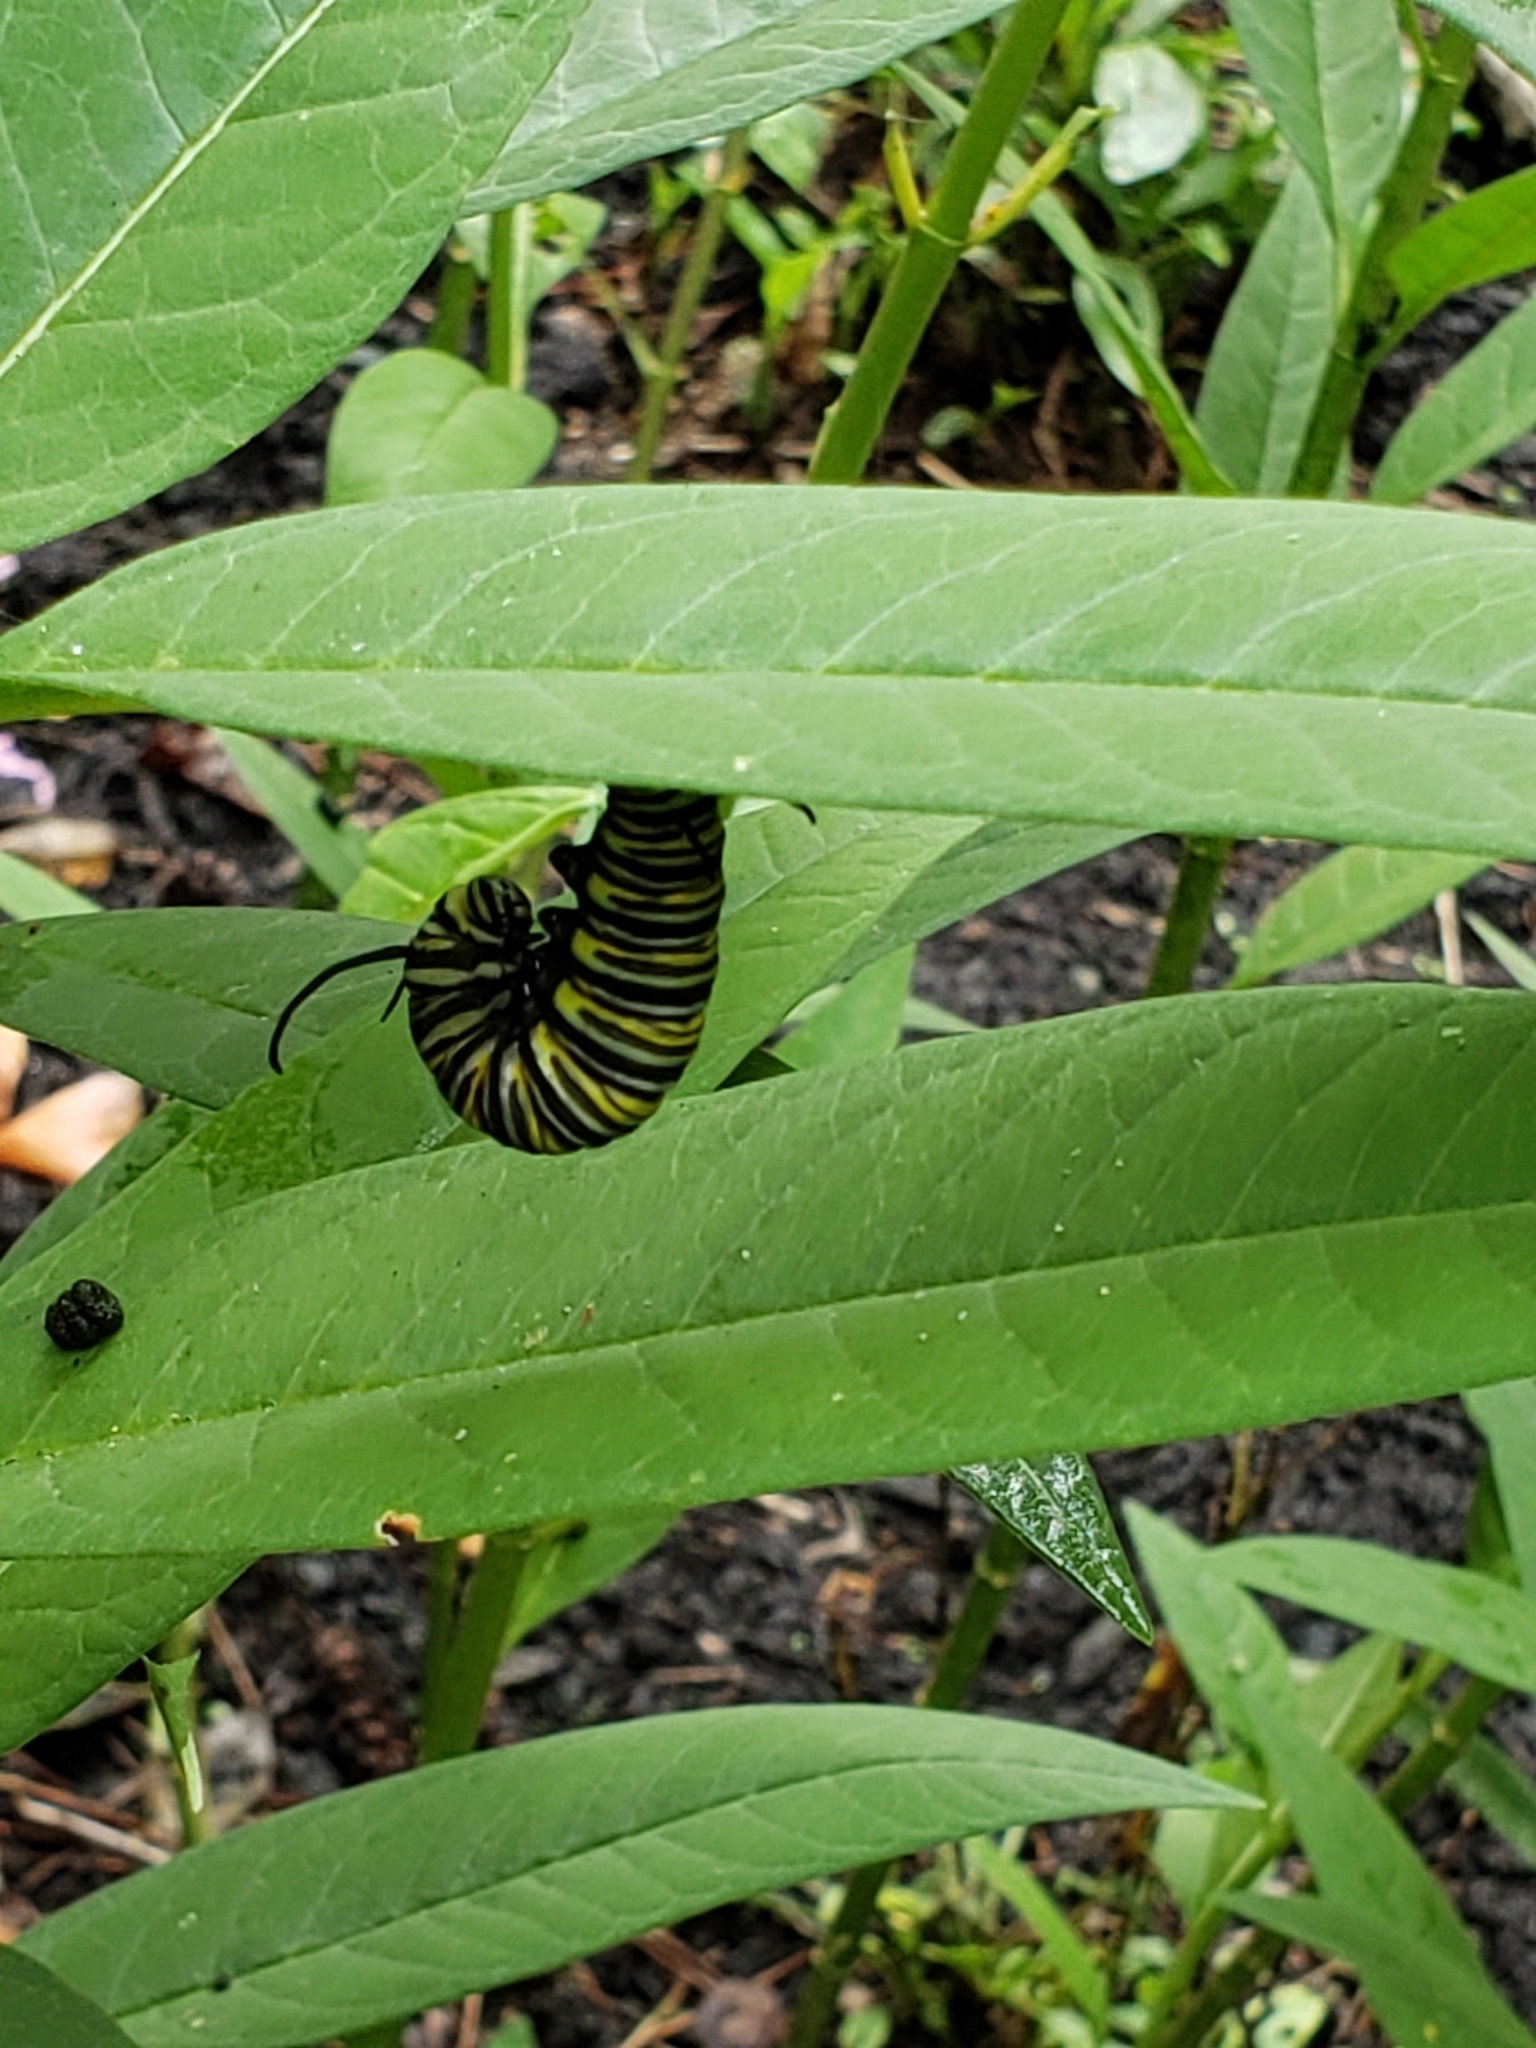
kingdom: Animalia
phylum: Arthropoda
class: Insecta
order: Lepidoptera
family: Nymphalidae
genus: Danaus
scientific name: Danaus plexippus
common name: Monarch
